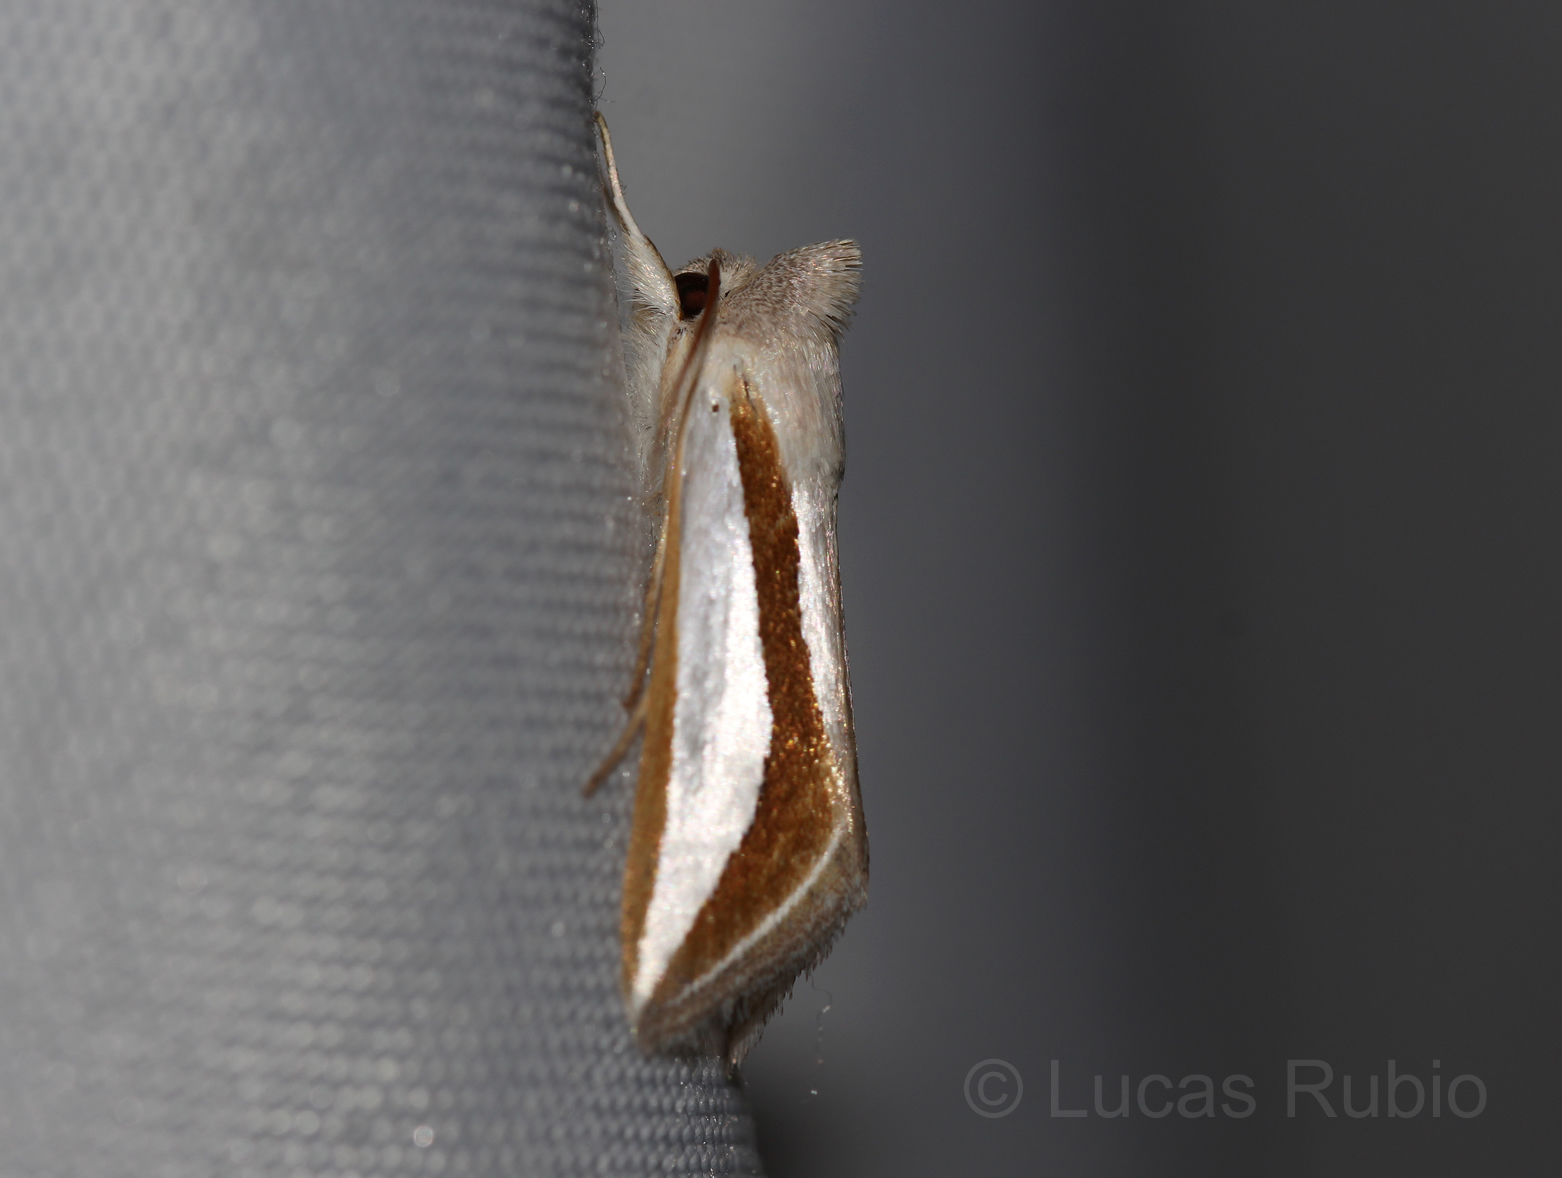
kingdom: Animalia
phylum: Arthropoda
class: Insecta
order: Lepidoptera
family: Noctuidae
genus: Cucullia
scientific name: Cucullia argyrina
